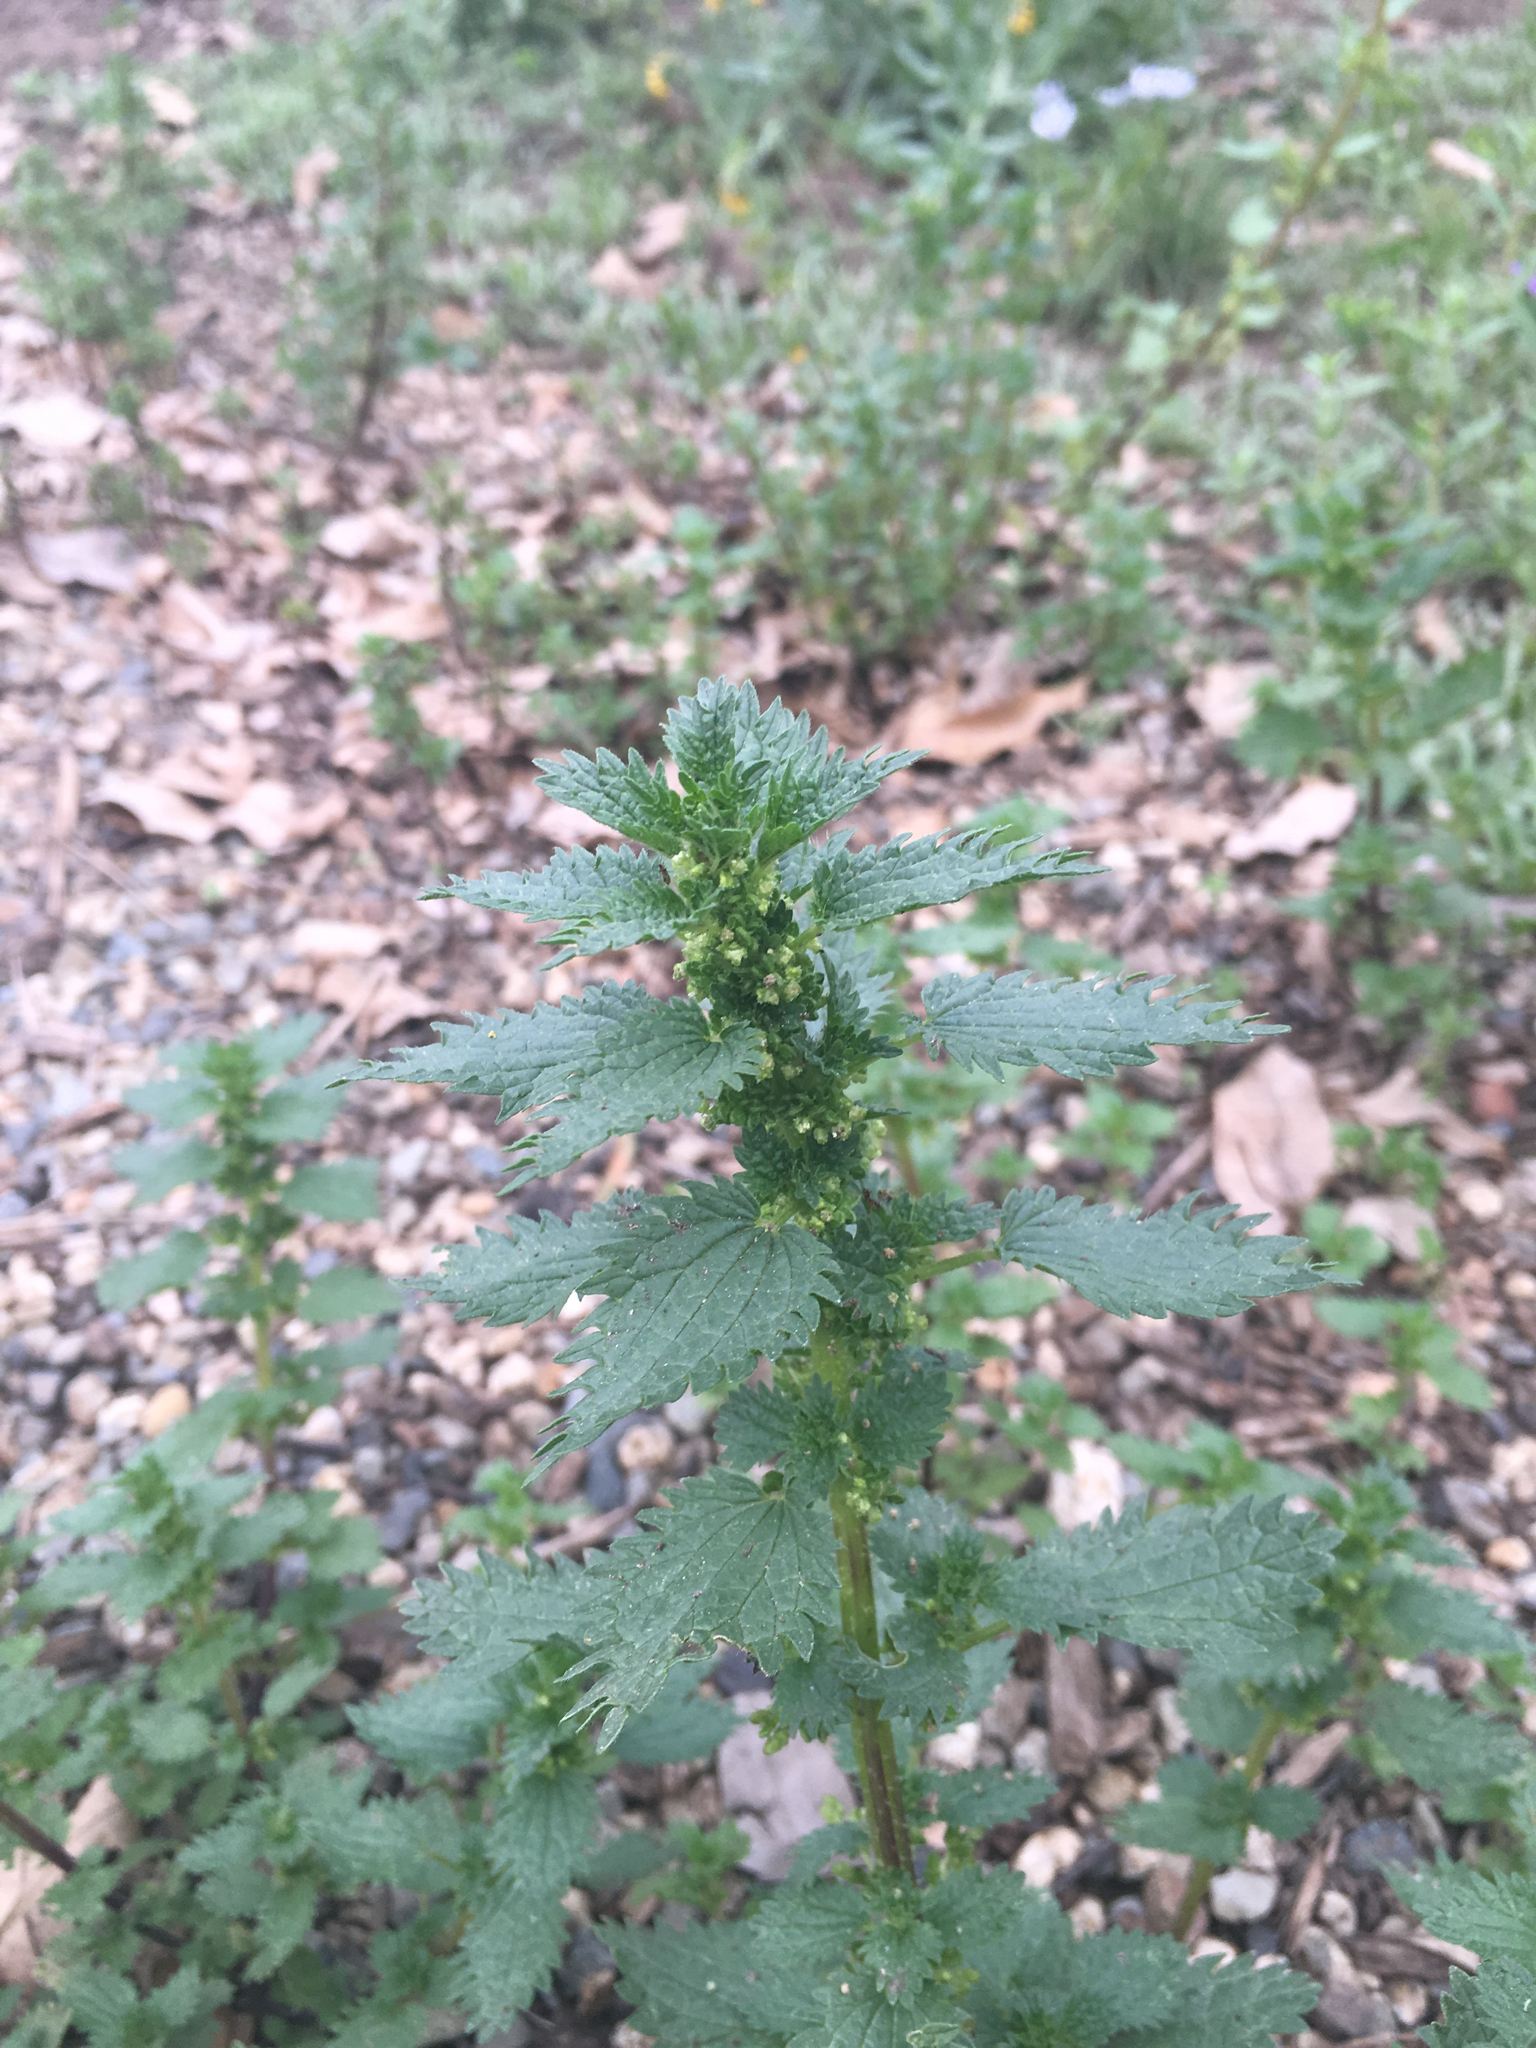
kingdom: Plantae
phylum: Tracheophyta
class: Magnoliopsida
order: Rosales
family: Urticaceae
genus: Urtica
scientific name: Urtica urens
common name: Dwarf nettle
